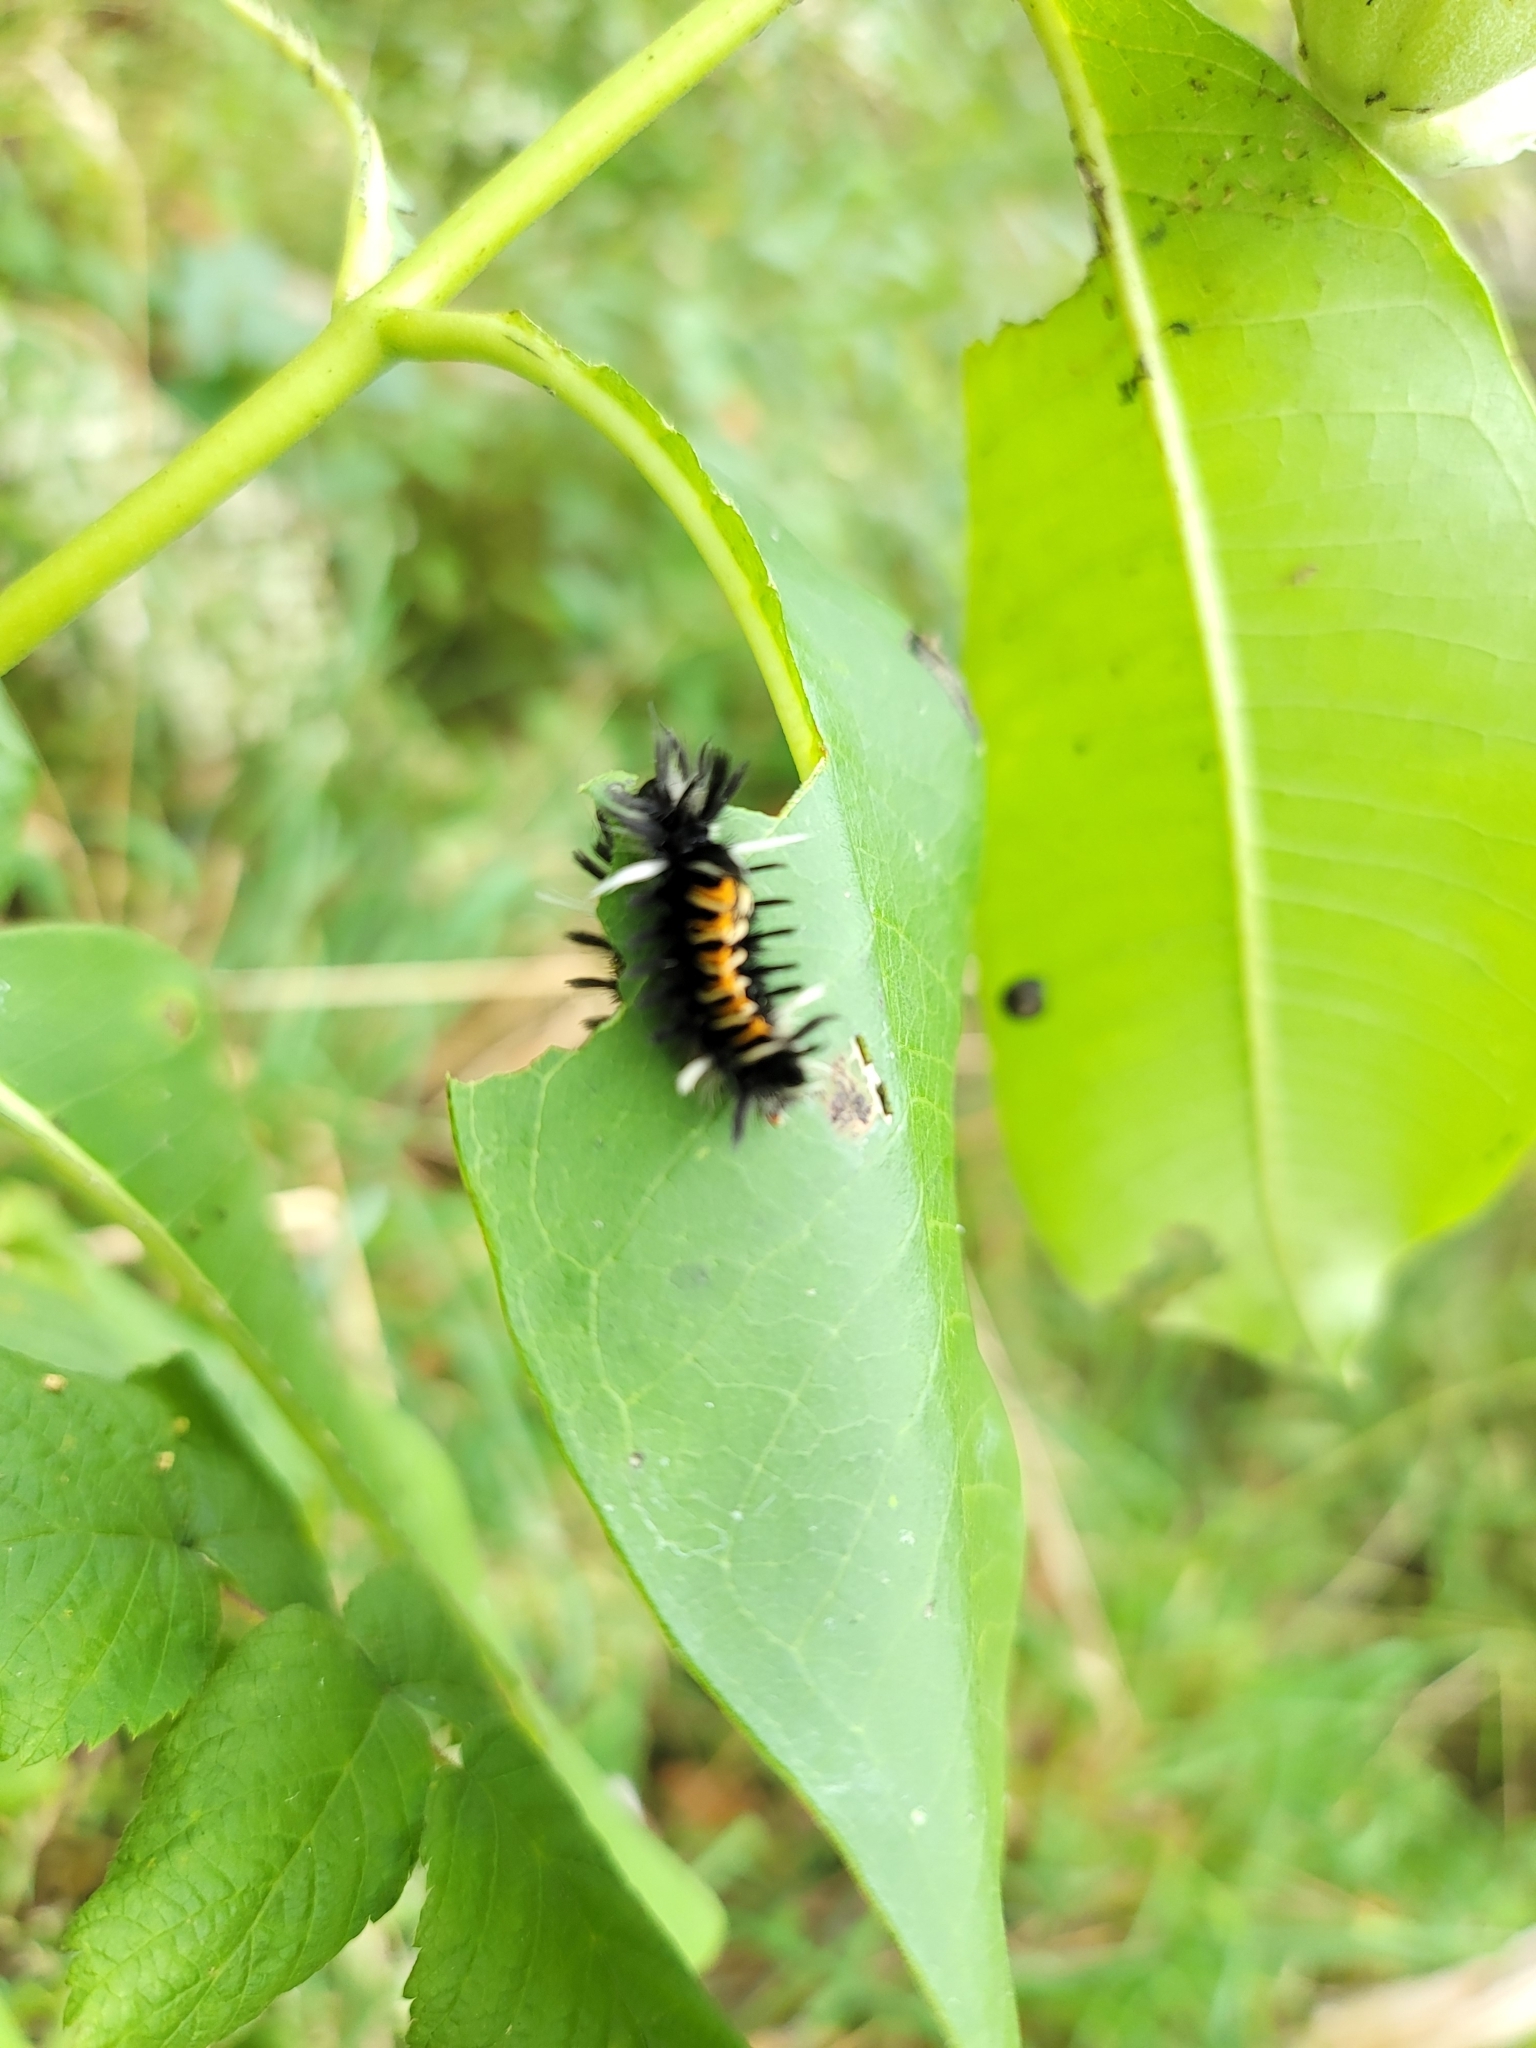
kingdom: Animalia
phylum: Arthropoda
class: Insecta
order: Lepidoptera
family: Erebidae
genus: Euchaetes
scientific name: Euchaetes egle
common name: Milkweed tussock moth
